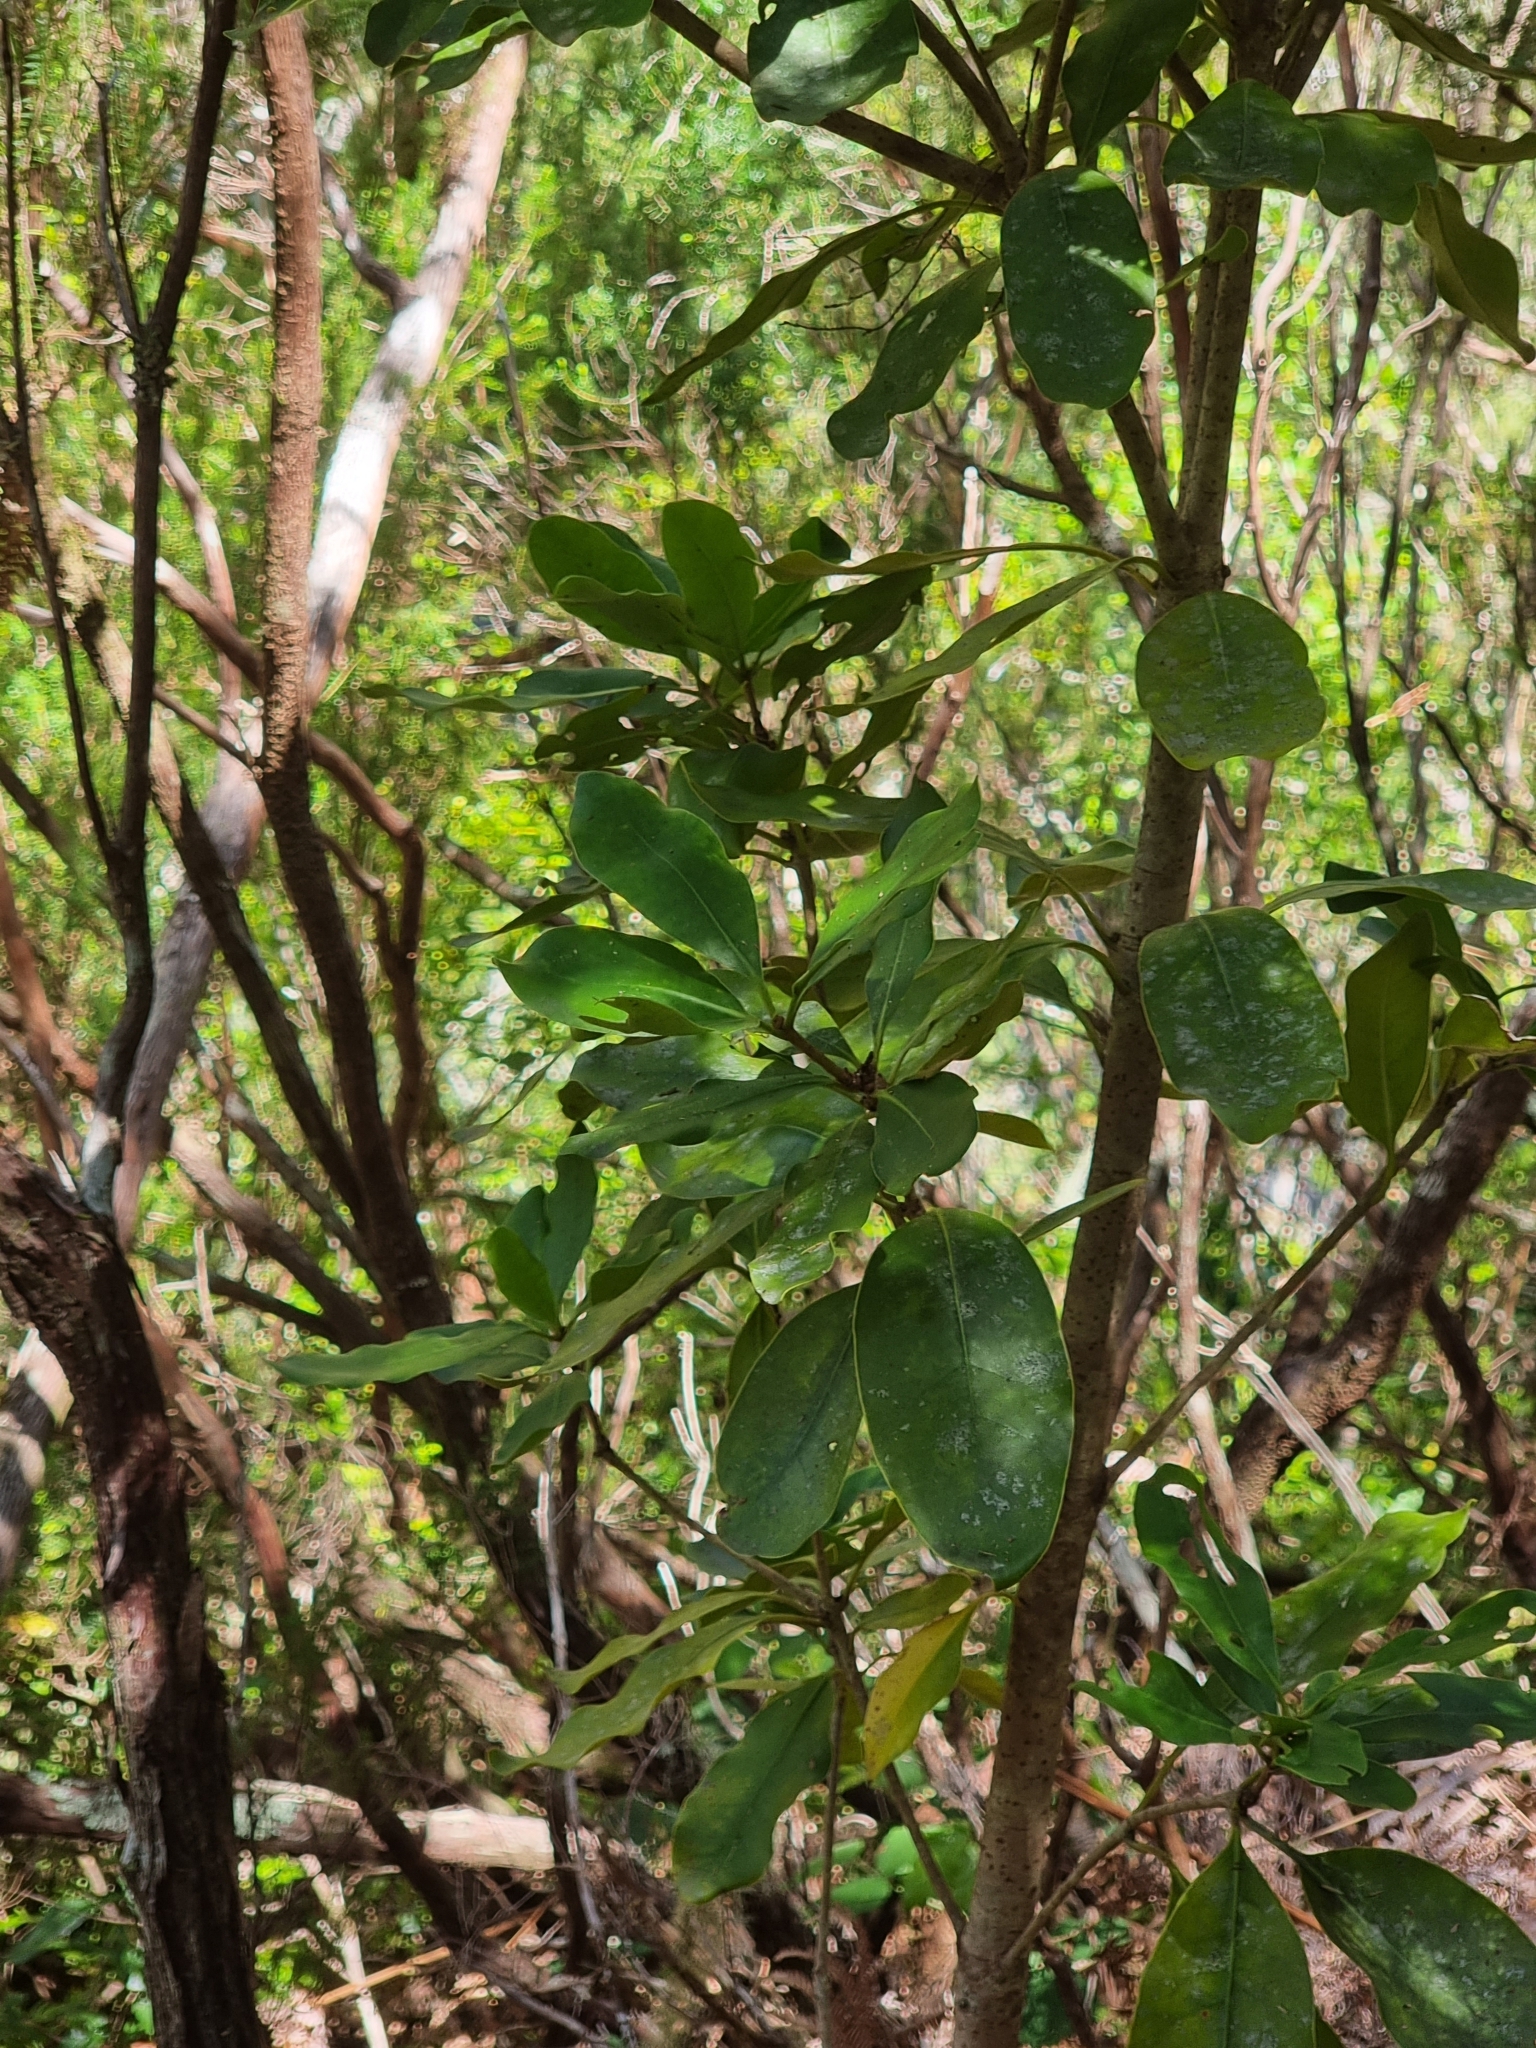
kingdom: Plantae
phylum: Tracheophyta
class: Magnoliopsida
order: Apiales
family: Pittosporaceae
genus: Pittosporum
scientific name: Pittosporum coriaceum
